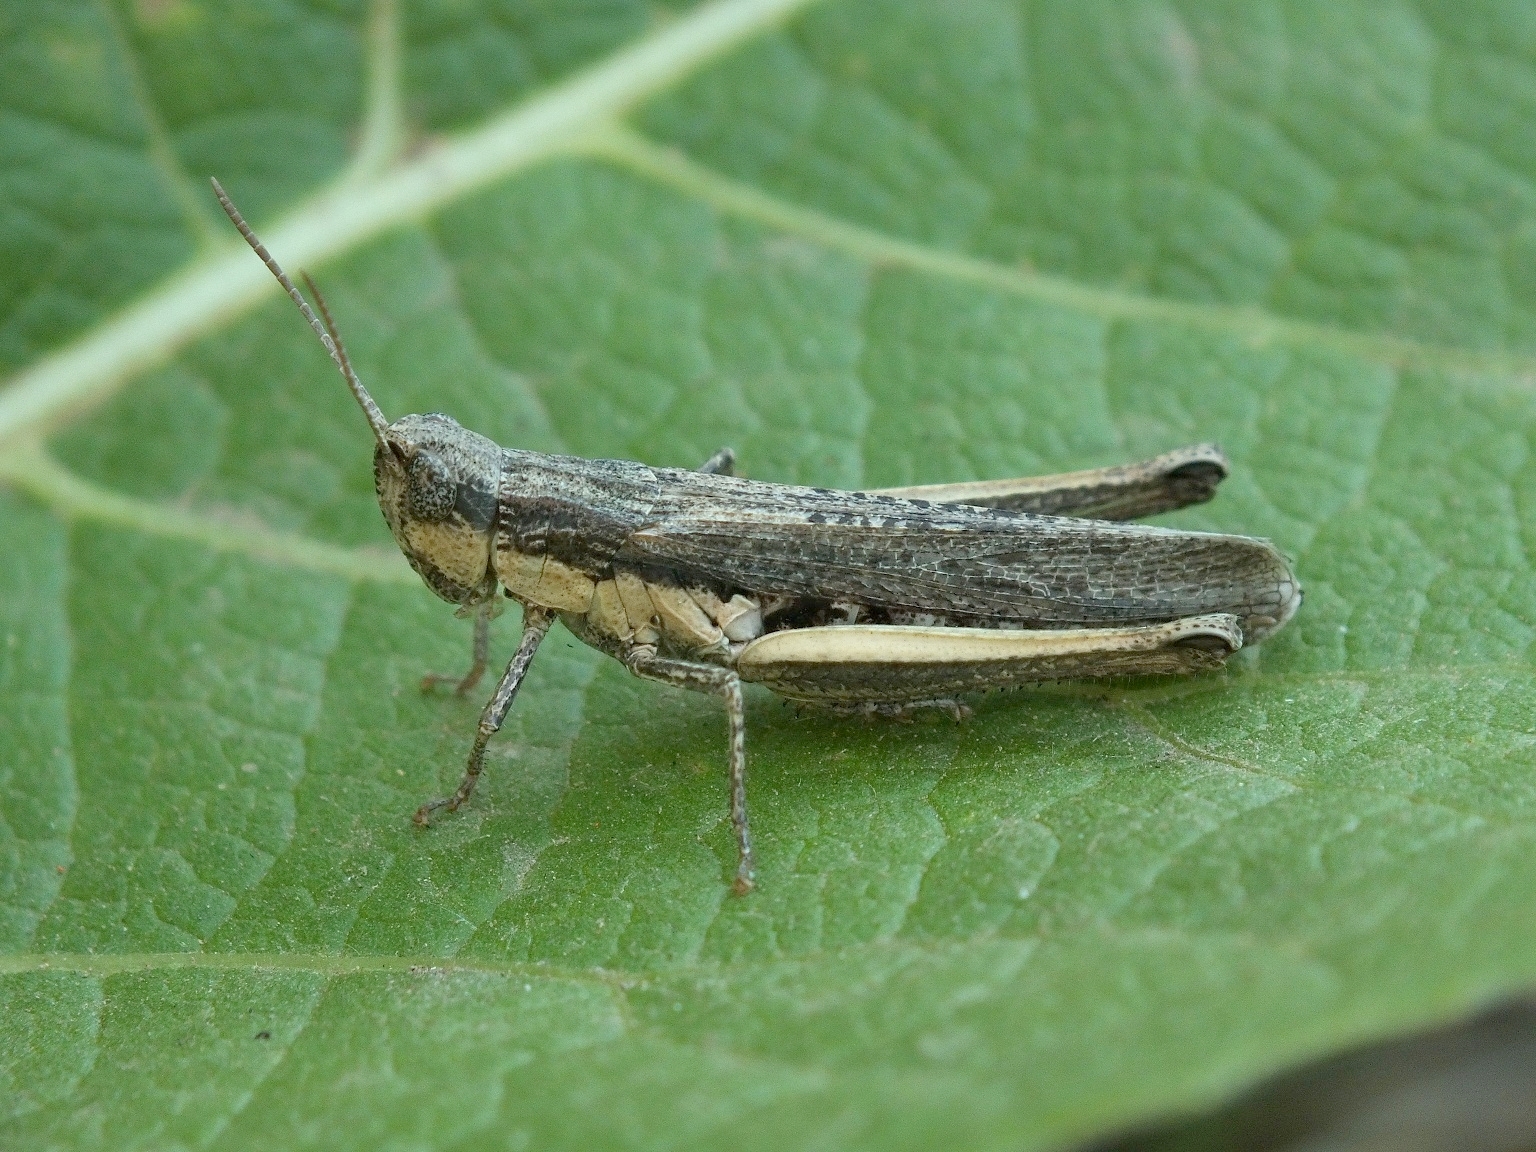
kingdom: Animalia
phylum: Arthropoda
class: Insecta
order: Orthoptera
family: Acrididae
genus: Chorthippus
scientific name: Chorthippus dichrous
